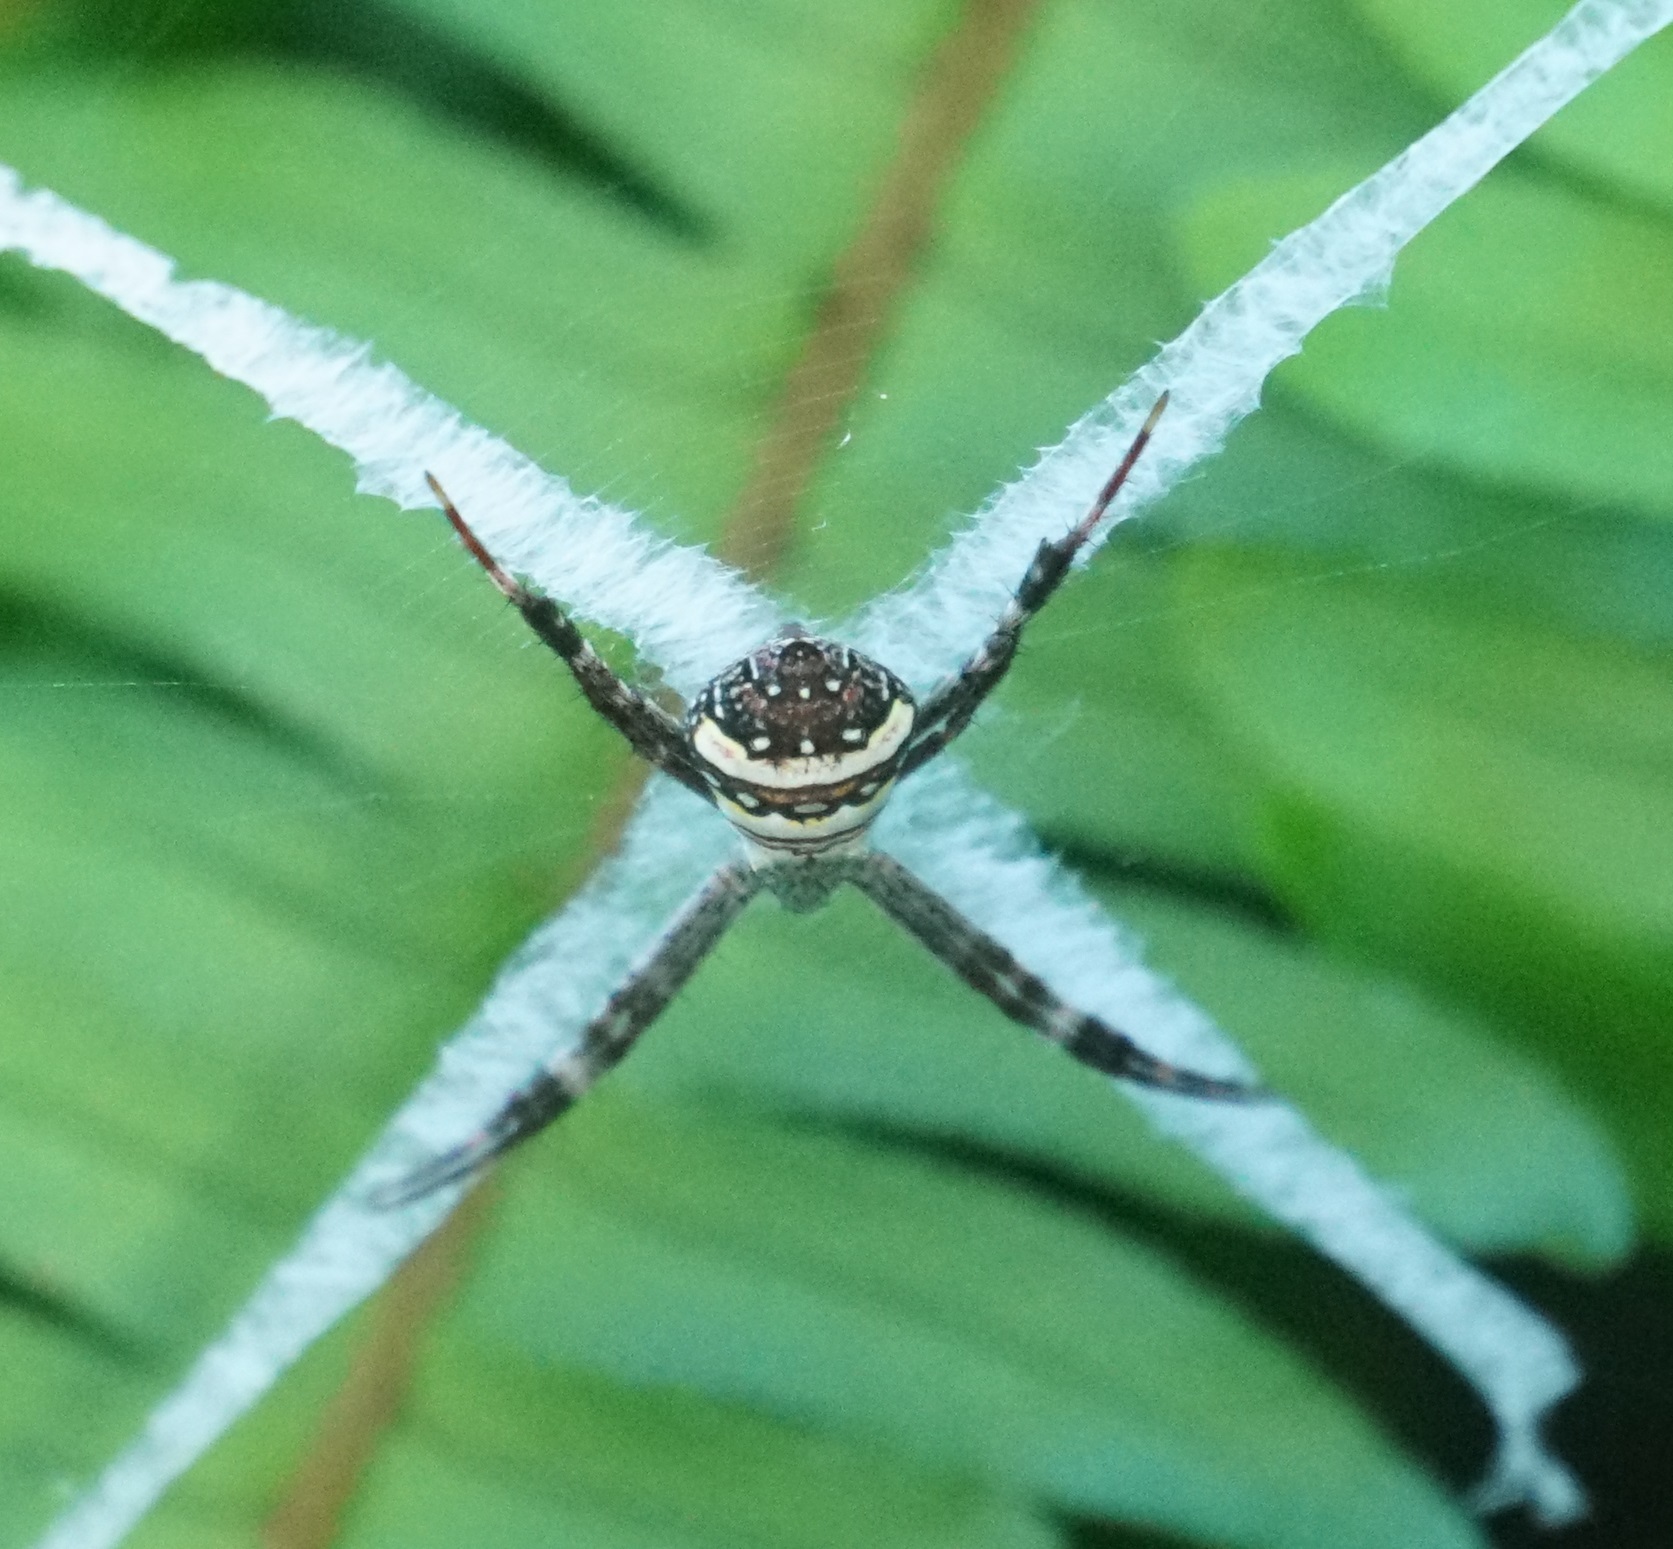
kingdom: Animalia
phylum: Arthropoda
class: Arachnida
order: Araneae
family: Araneidae
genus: Argiope
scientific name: Argiope aetherea
